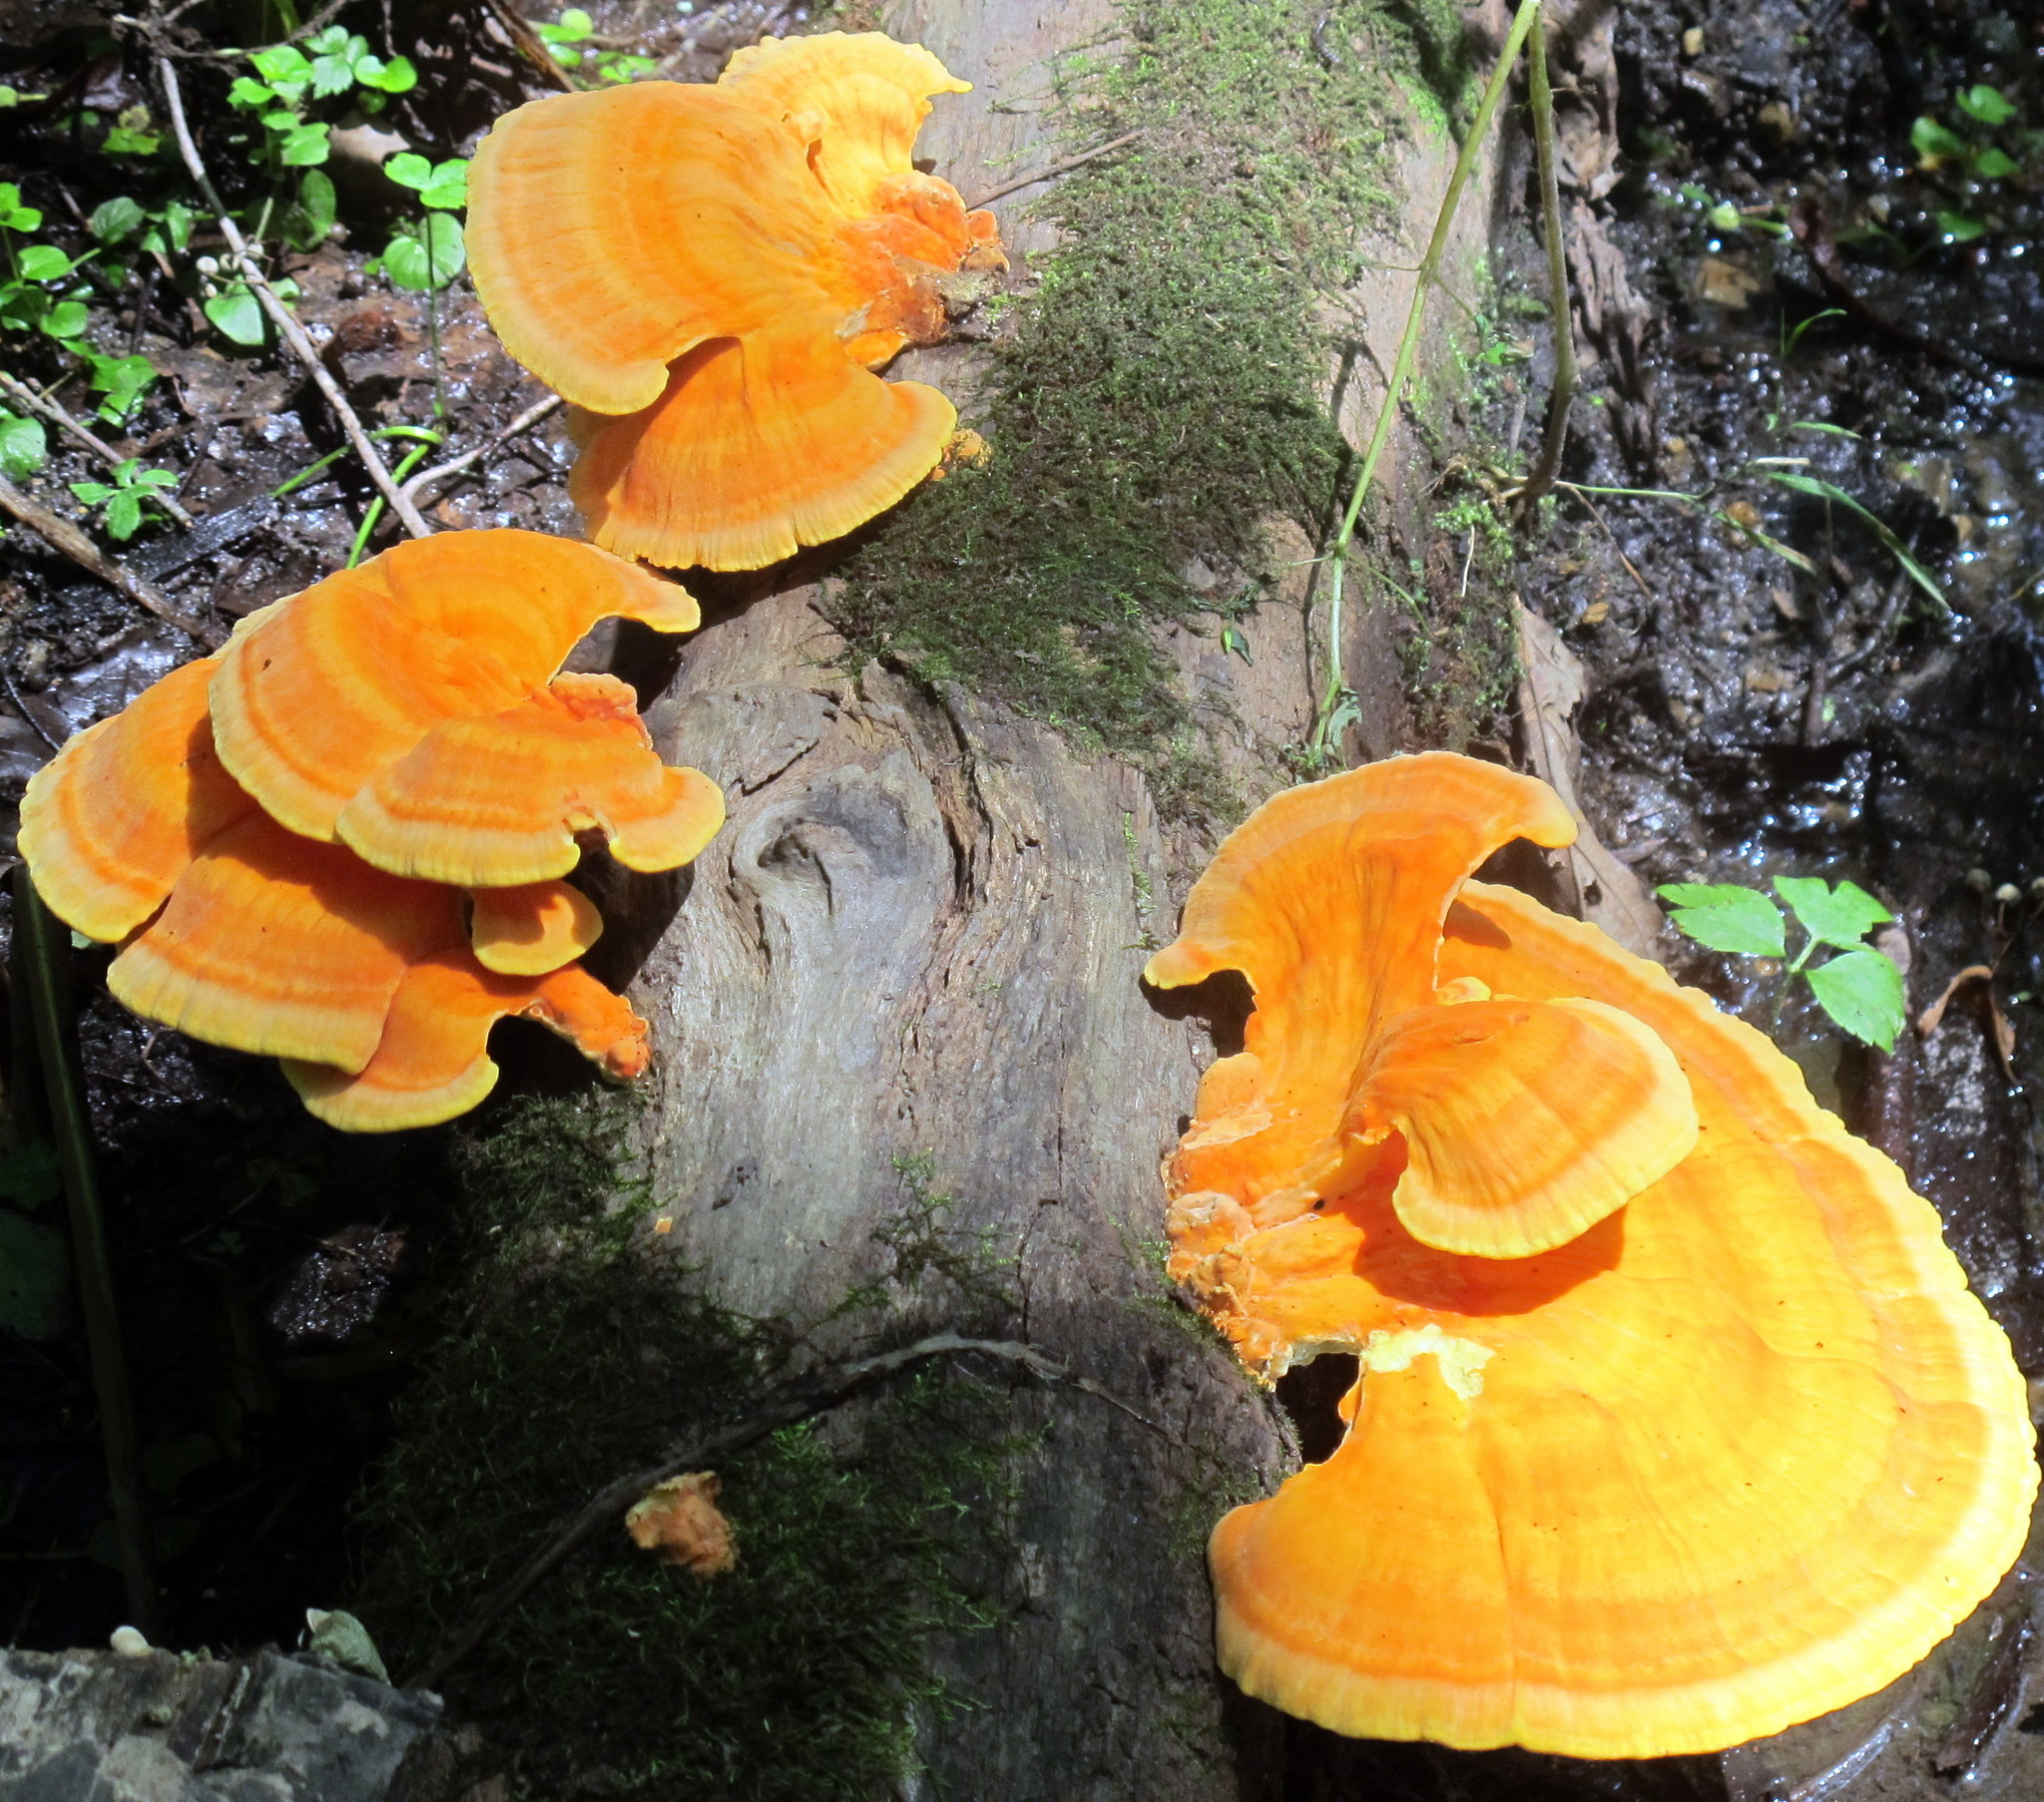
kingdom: Fungi
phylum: Basidiomycota
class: Agaricomycetes
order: Polyporales
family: Laetiporaceae
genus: Laetiporus
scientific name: Laetiporus sulphureus
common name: Chicken of the woods
